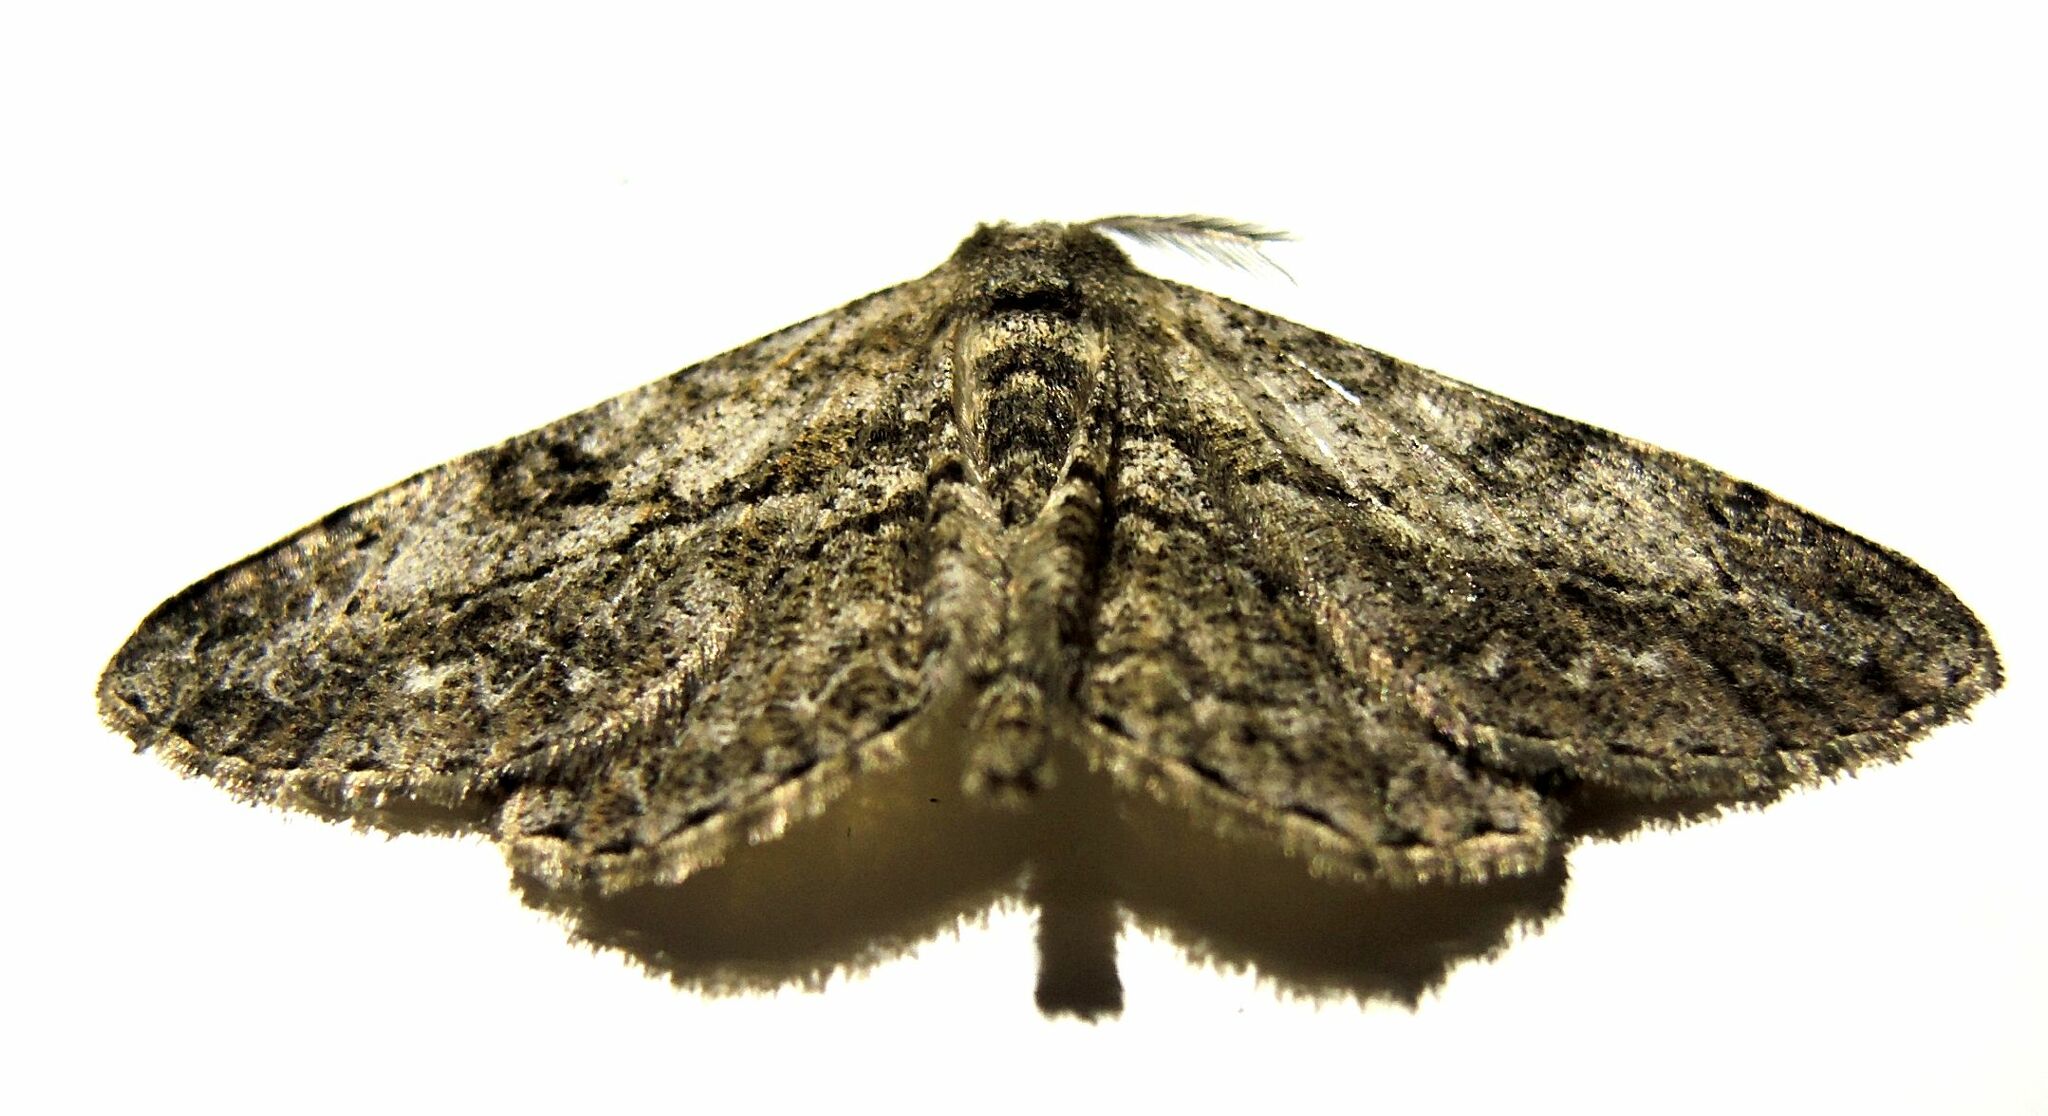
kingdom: Animalia
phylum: Arthropoda
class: Insecta
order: Lepidoptera
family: Geometridae
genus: Peribatodes
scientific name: Peribatodes rhomboidaria
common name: Willow beauty
